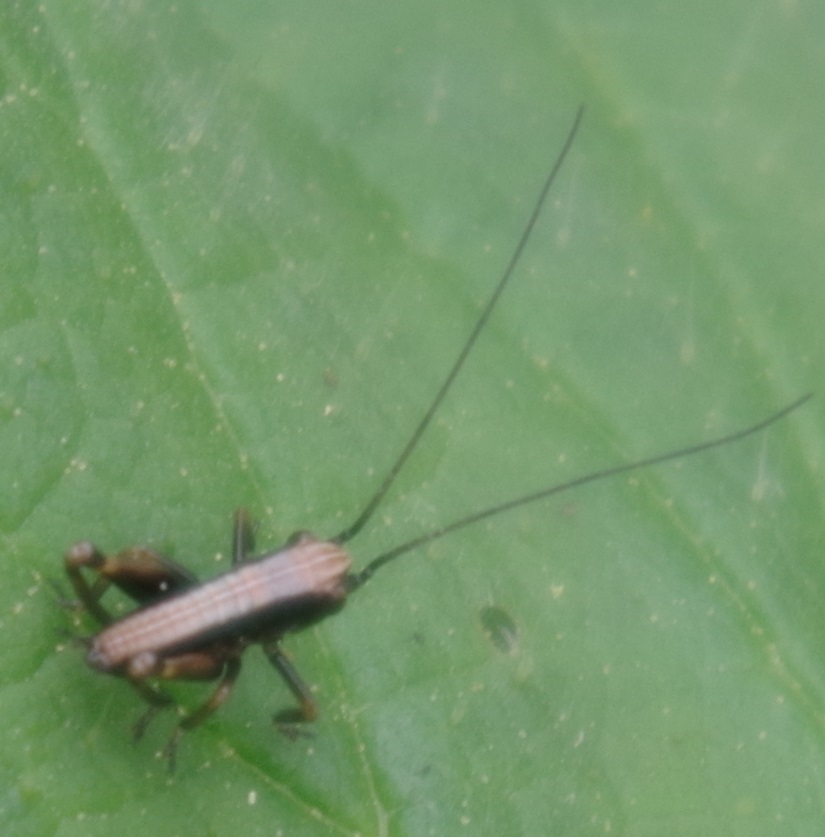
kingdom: Animalia
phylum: Arthropoda
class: Insecta
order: Orthoptera
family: Tettigoniidae
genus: Pholidoptera
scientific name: Pholidoptera griseoaptera
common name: Dark bush-cricket
